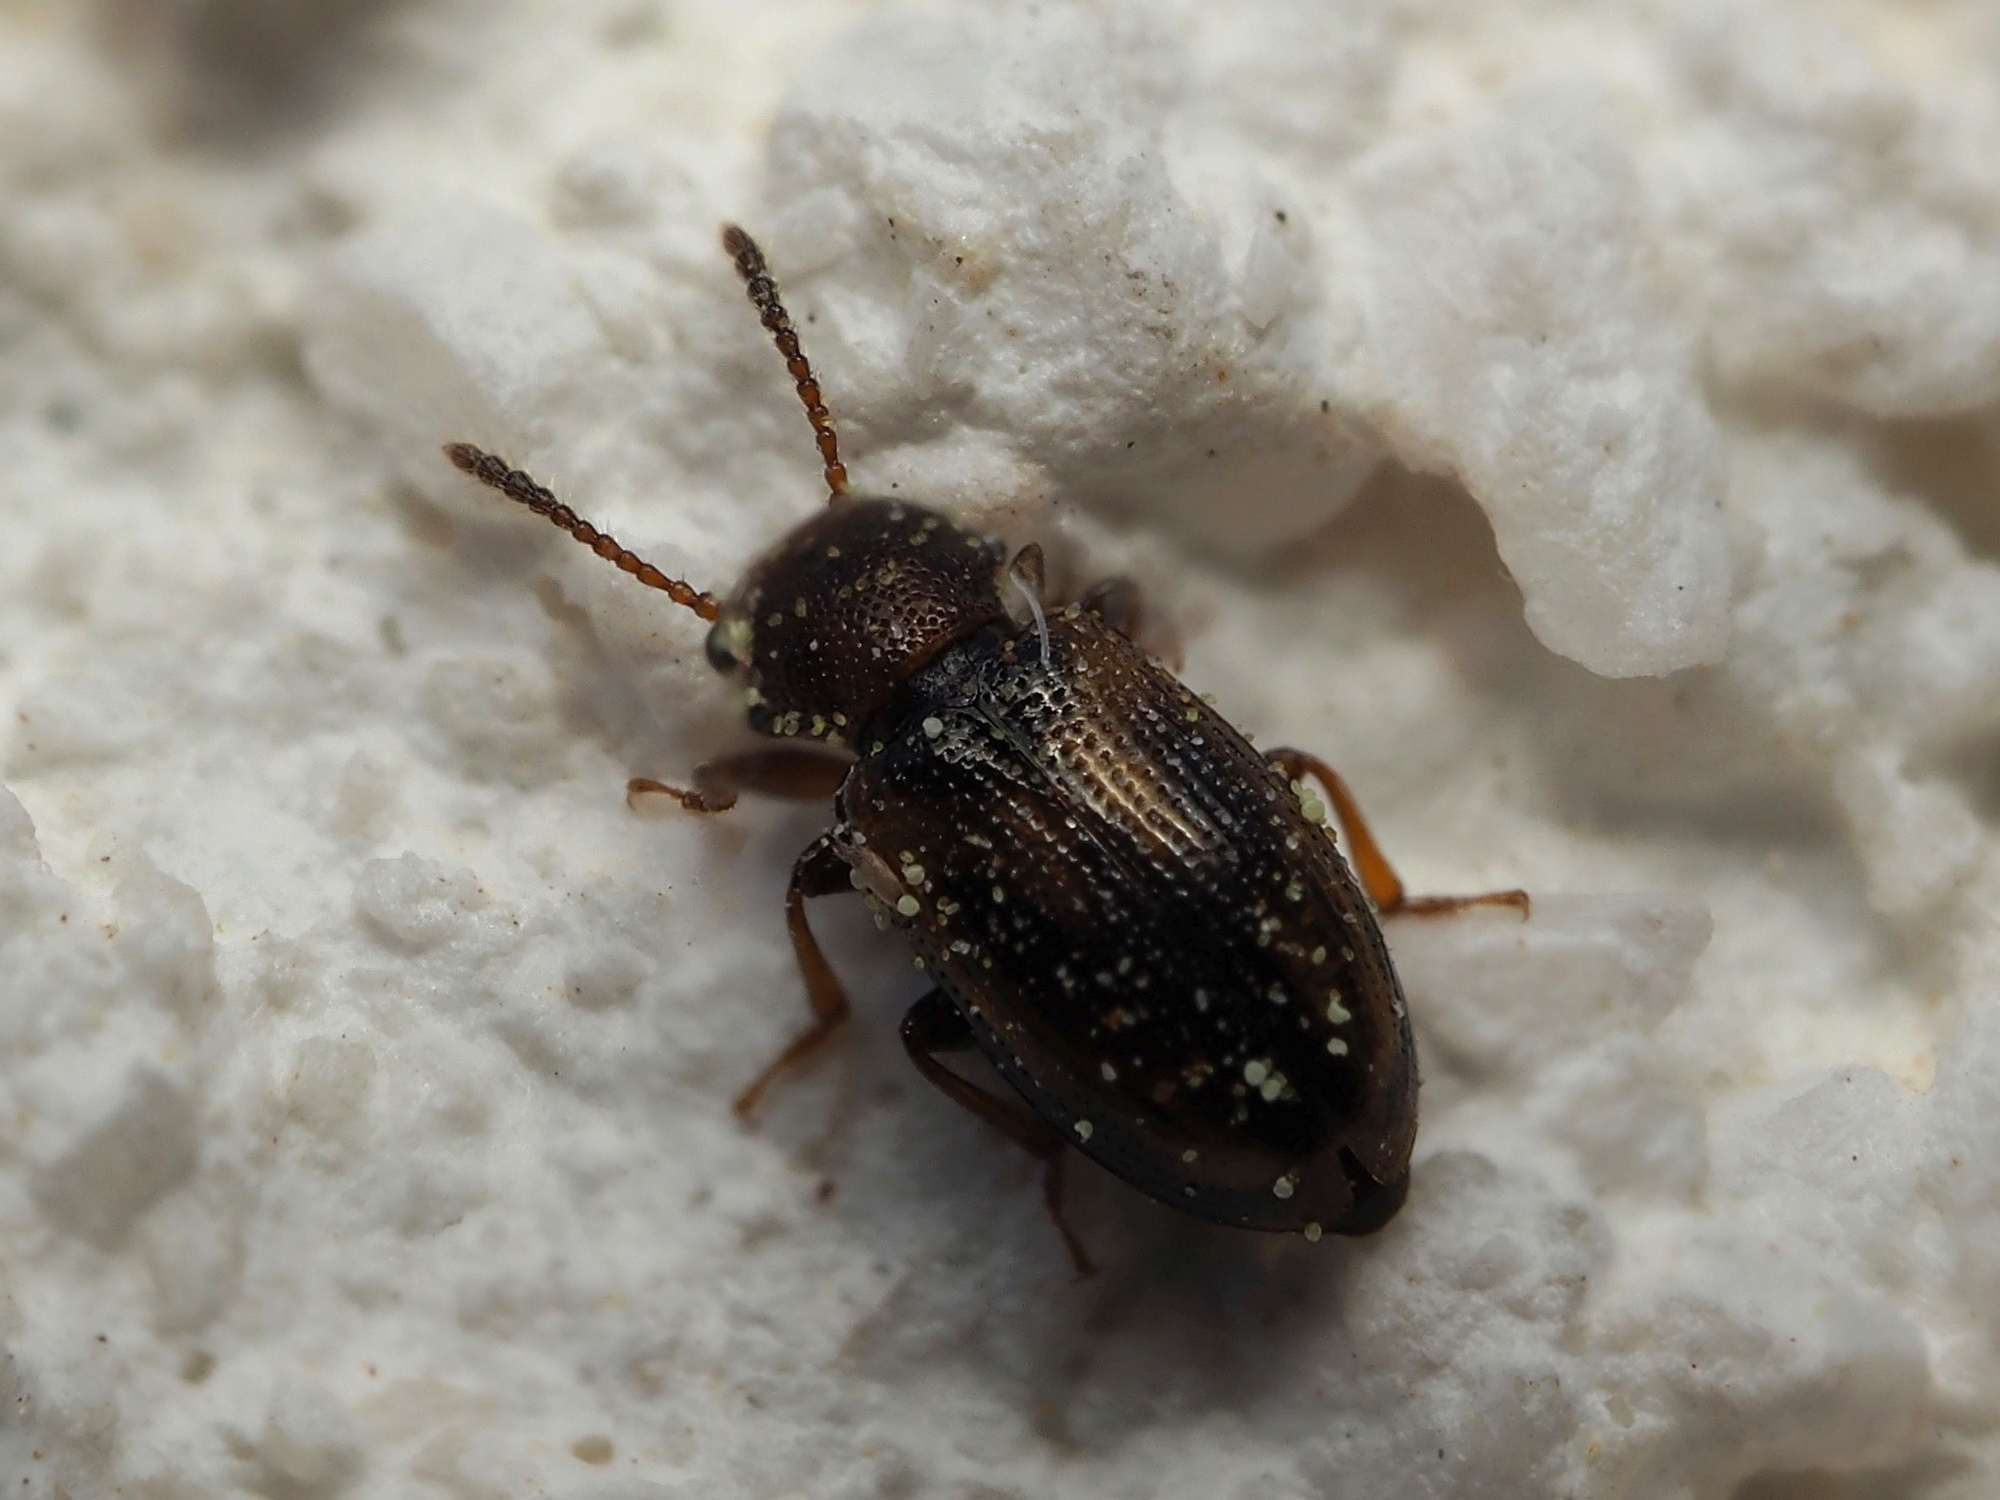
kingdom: Animalia
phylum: Arthropoda
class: Insecta
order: Coleoptera
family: Salpingidae
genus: Lissodema
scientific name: Lissodema lituratum
